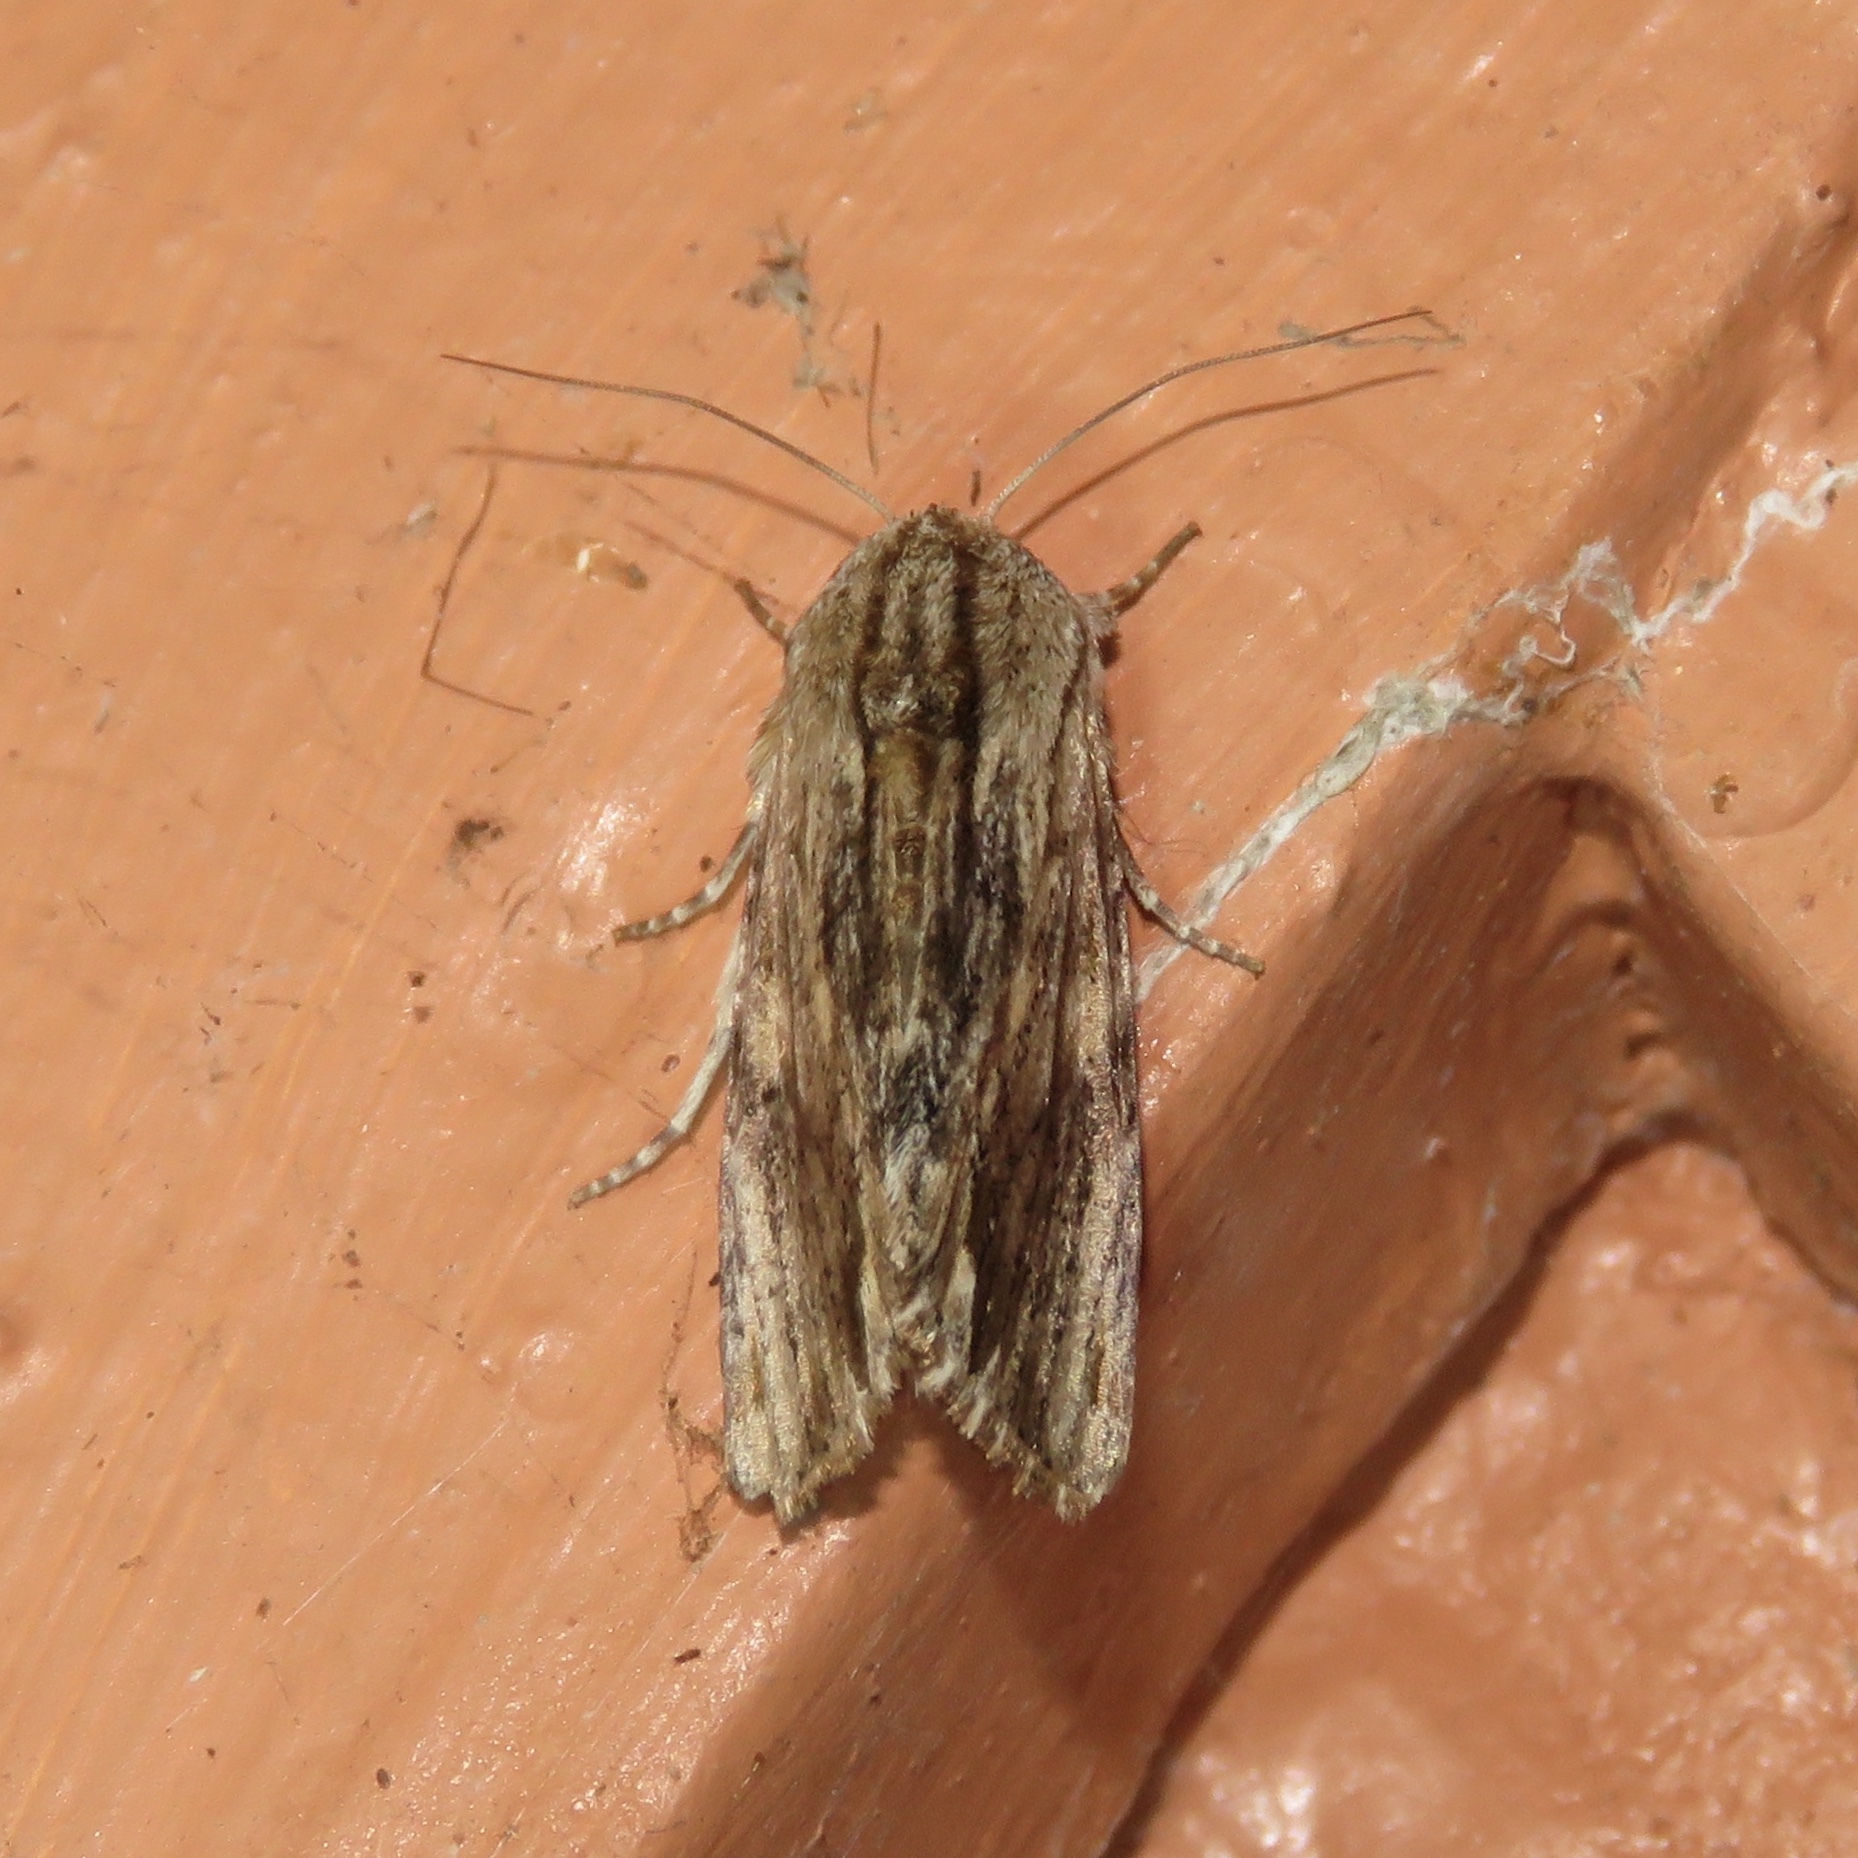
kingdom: Animalia
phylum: Arthropoda
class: Insecta
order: Lepidoptera
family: Noctuidae
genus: Spodoptera
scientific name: Spodoptera eridania
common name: Southern army worm
